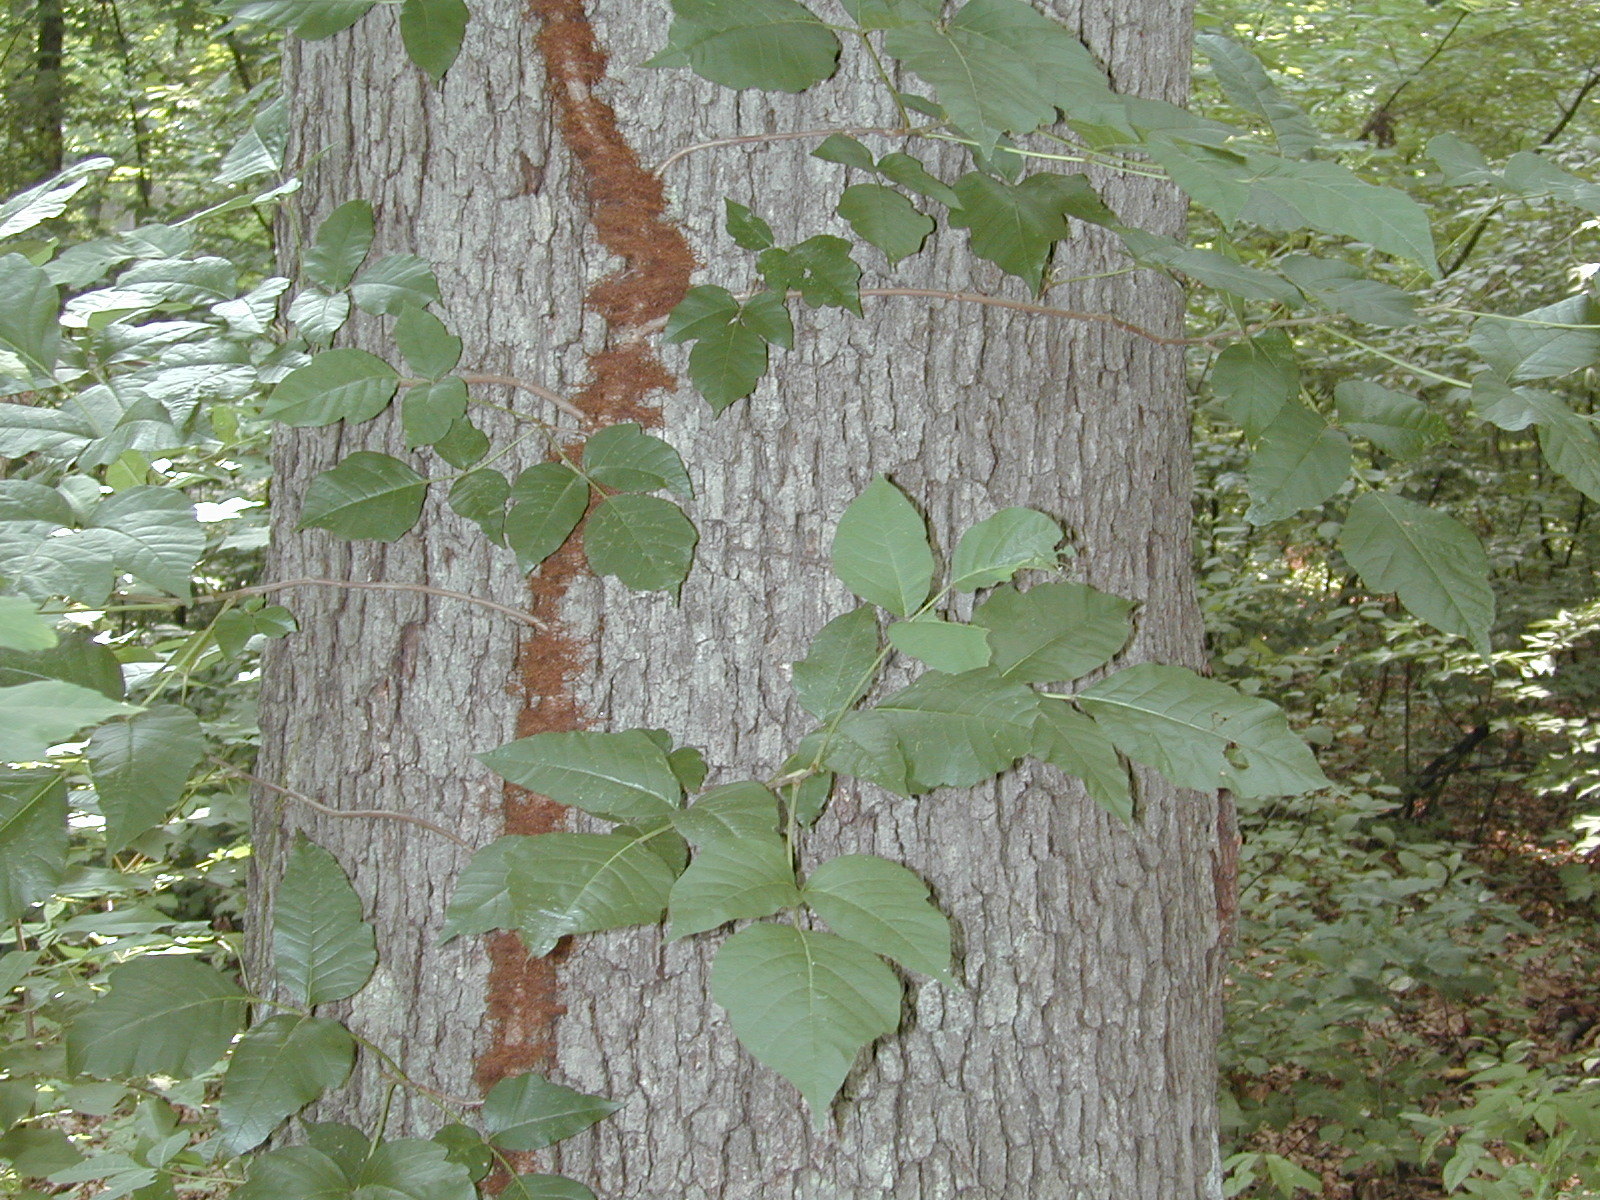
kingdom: Plantae
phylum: Tracheophyta
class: Magnoliopsida
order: Sapindales
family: Anacardiaceae
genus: Toxicodendron
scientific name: Toxicodendron radicans
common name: Poison ivy
